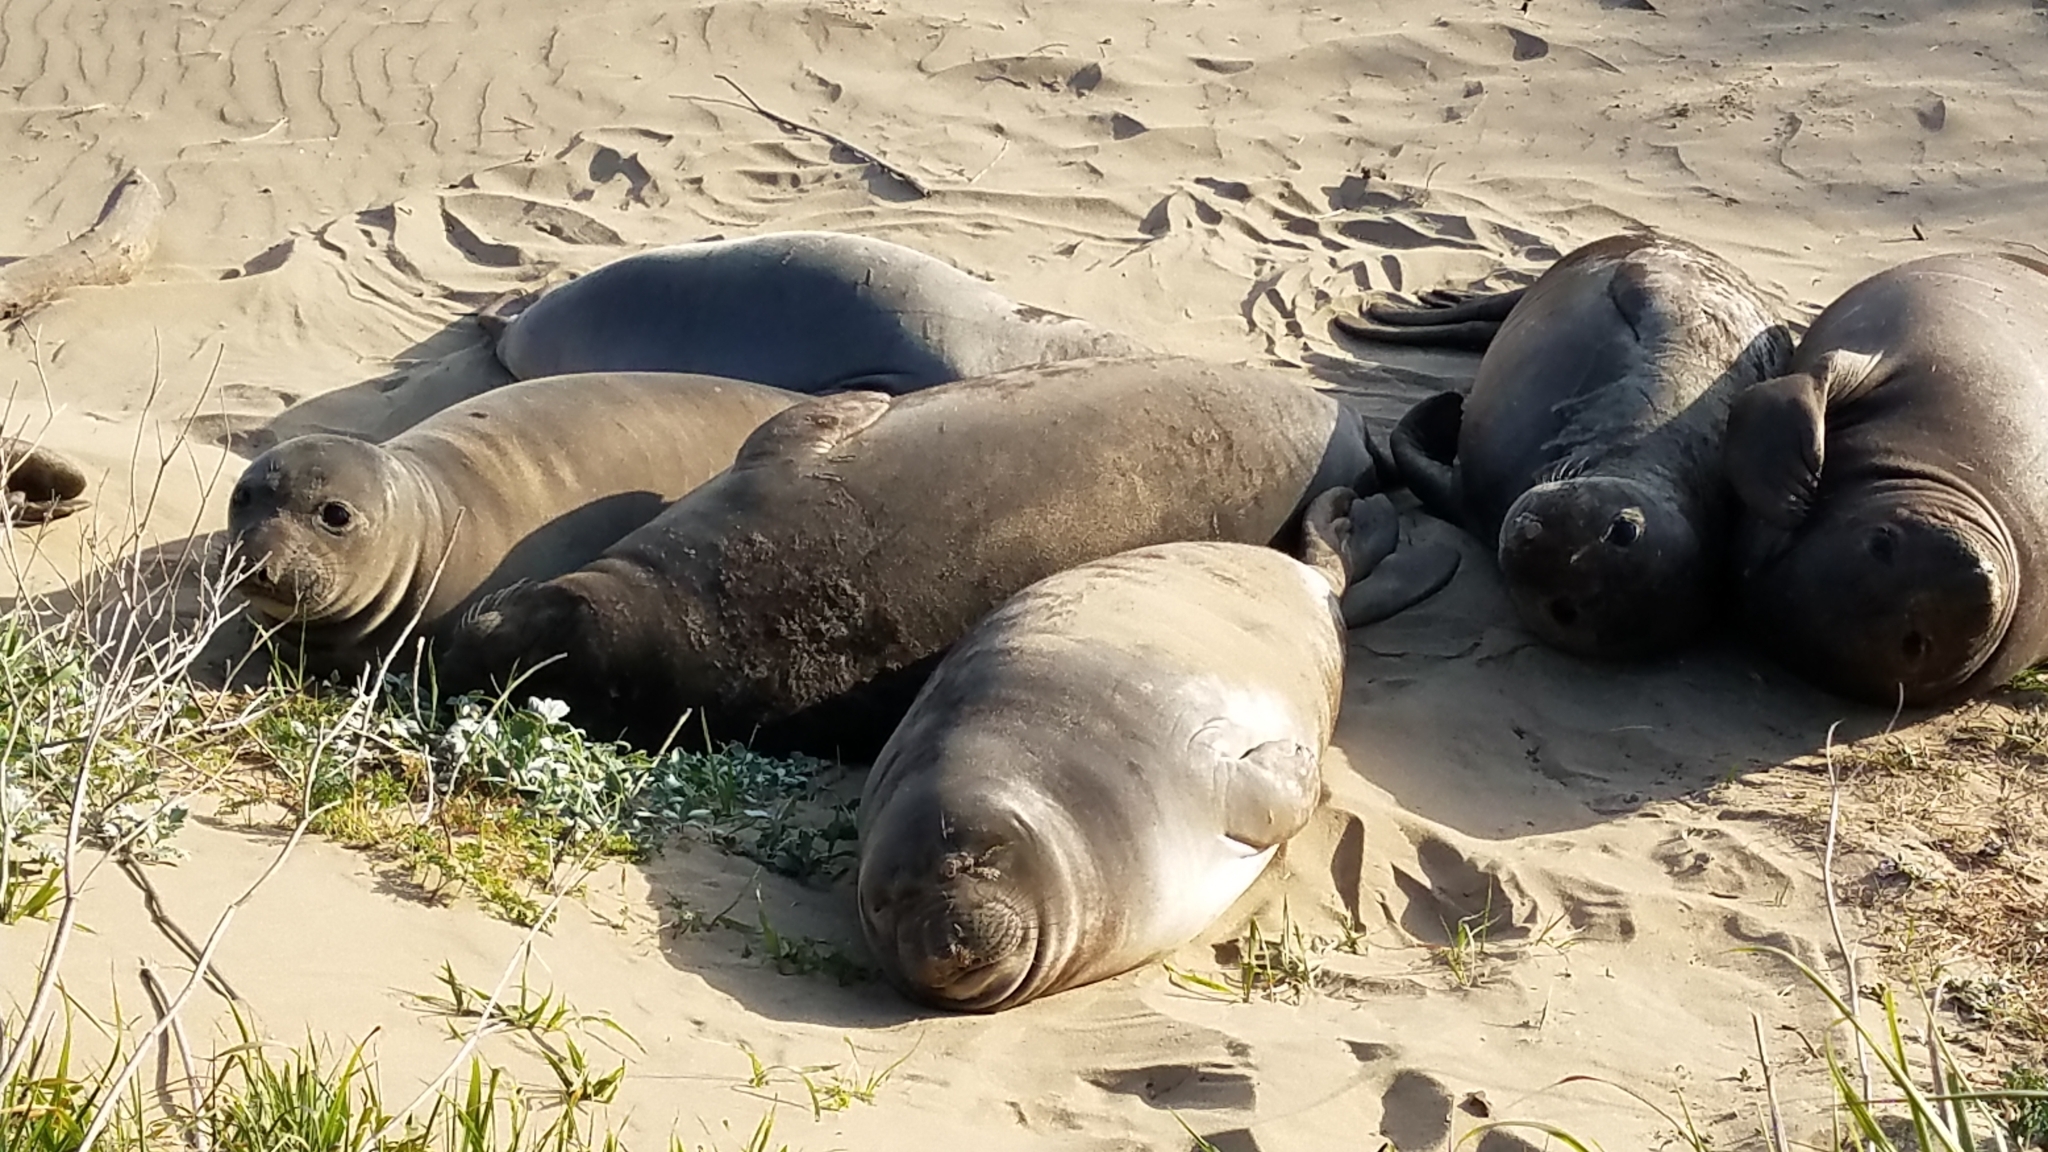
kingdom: Animalia
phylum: Chordata
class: Mammalia
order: Carnivora
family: Phocidae
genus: Mirounga
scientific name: Mirounga angustirostris
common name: Northern elephant seal
